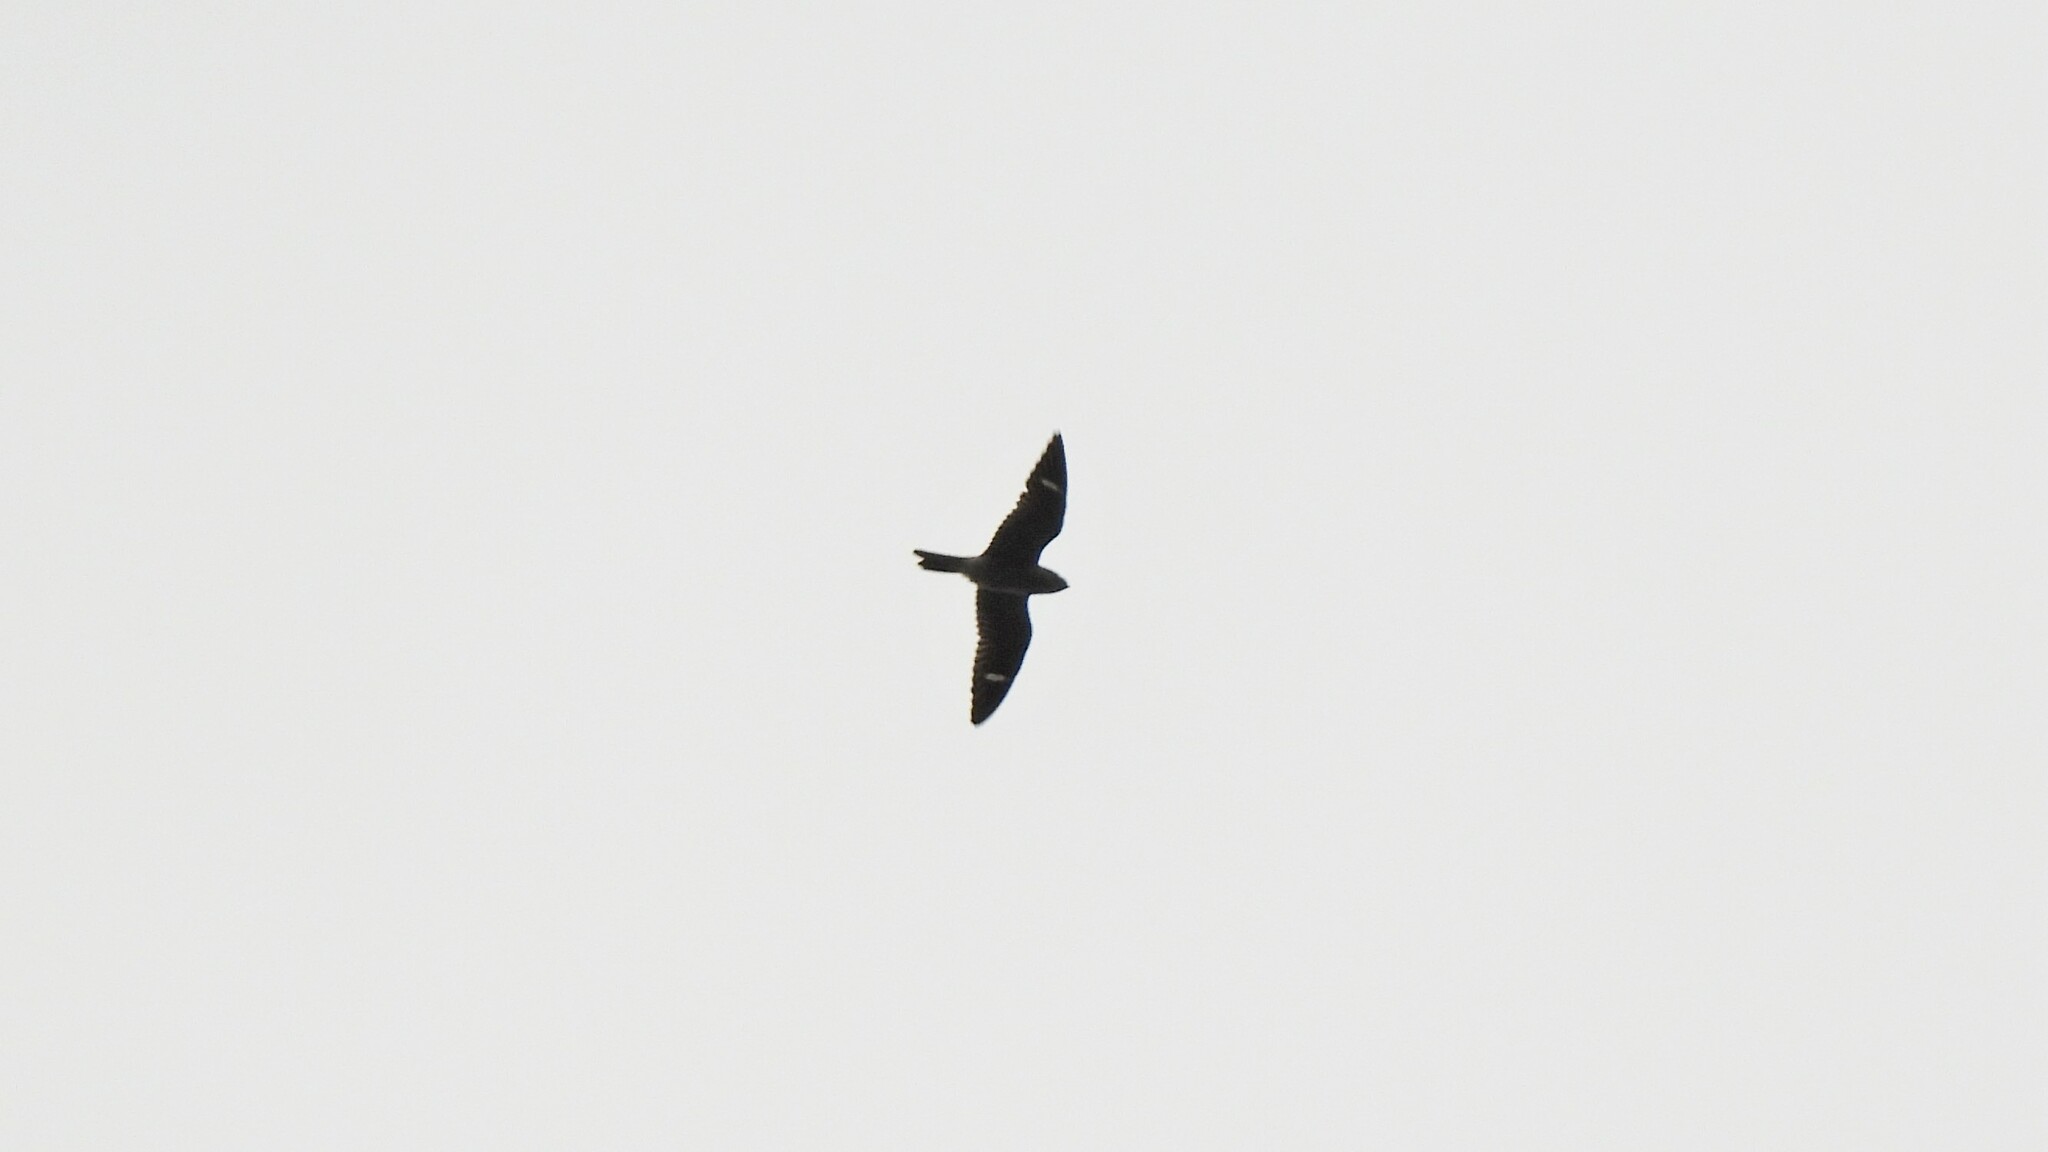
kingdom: Animalia
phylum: Chordata
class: Aves
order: Caprimulgiformes
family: Caprimulgidae
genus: Chordeiles
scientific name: Chordeiles minor
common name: Common nighthawk
